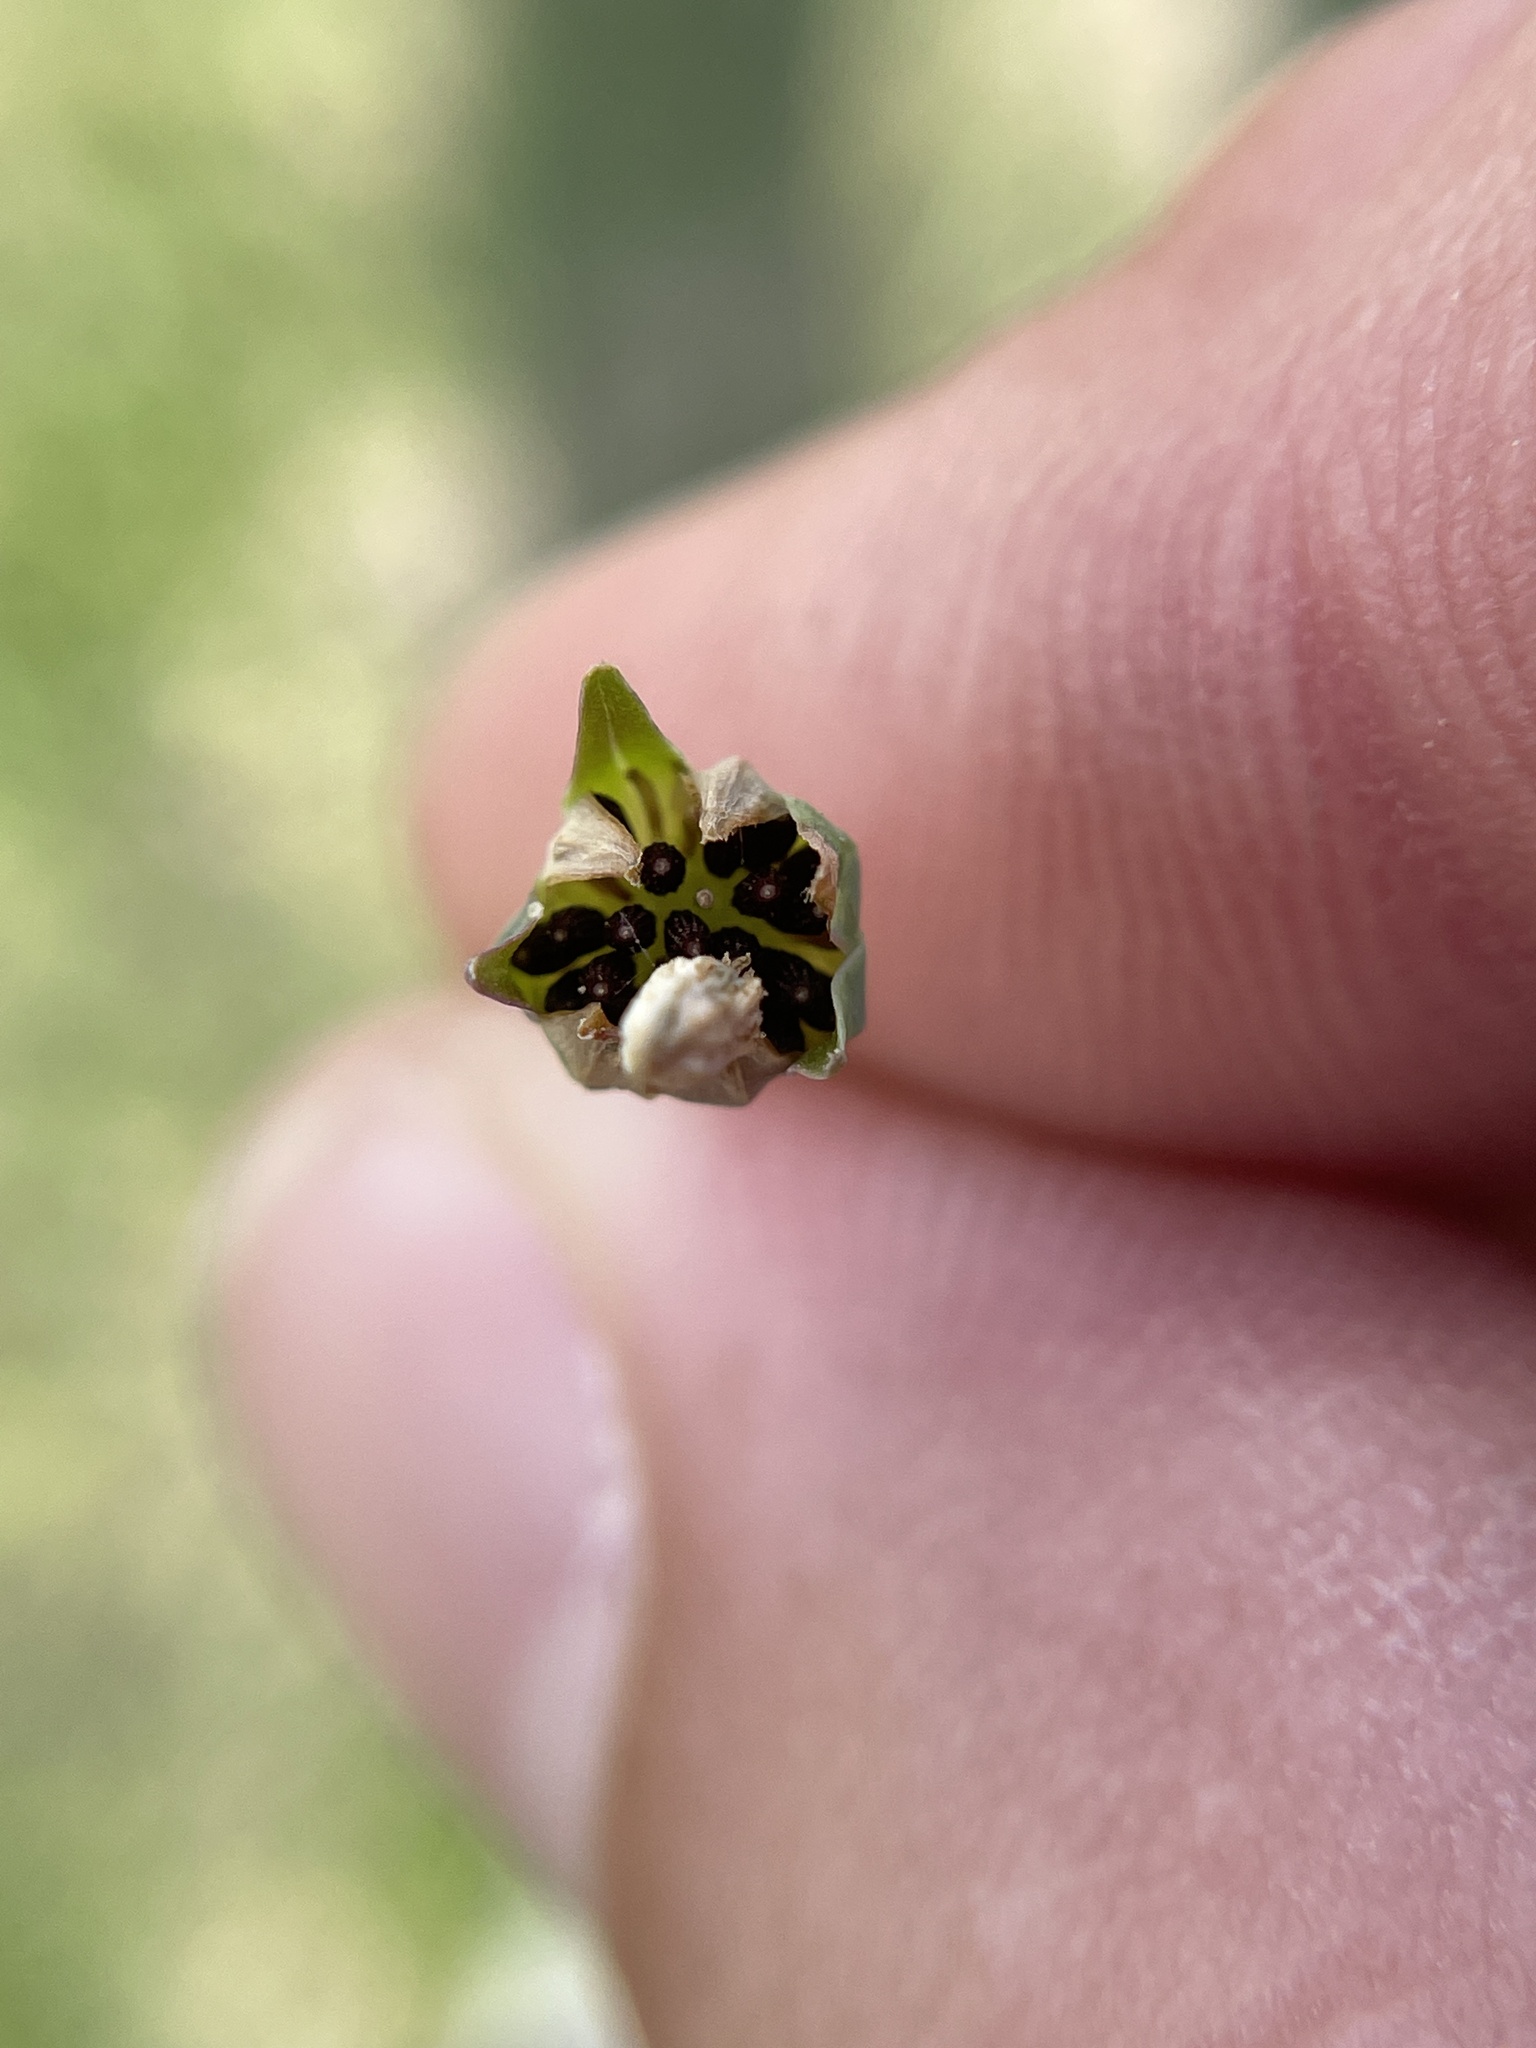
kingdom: Plantae
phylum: Tracheophyta
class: Magnoliopsida
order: Asterales
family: Asteraceae
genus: Krigia
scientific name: Krigia cespitosa
